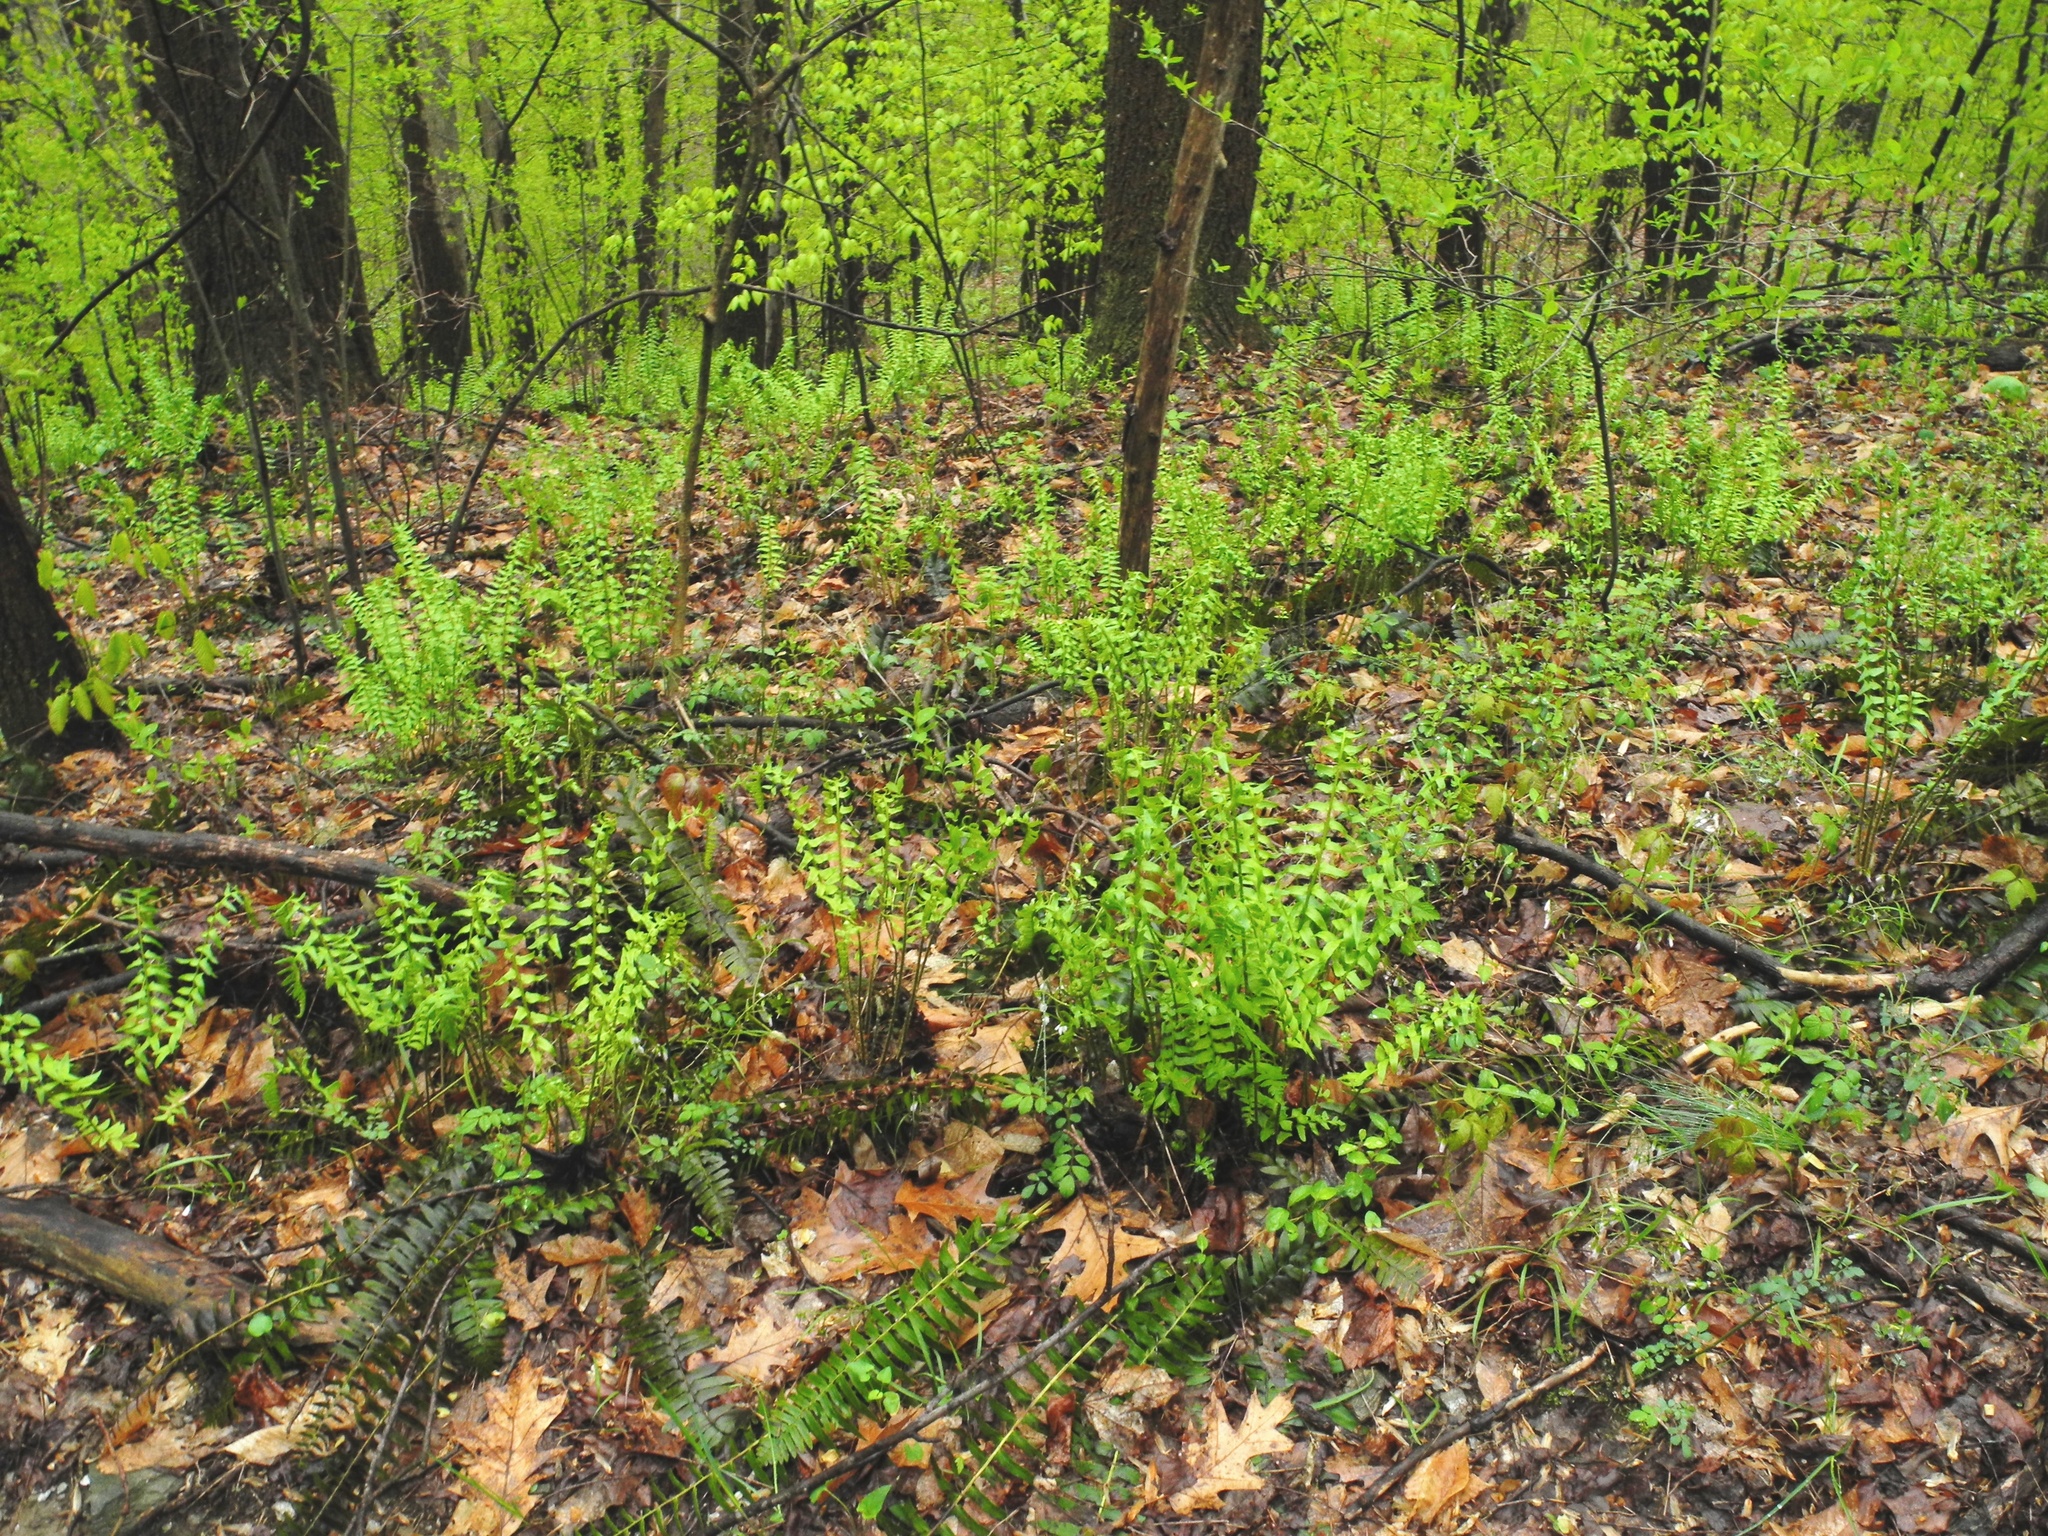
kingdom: Plantae
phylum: Tracheophyta
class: Polypodiopsida
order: Polypodiales
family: Dryopteridaceae
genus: Polystichum
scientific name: Polystichum acrostichoides
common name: Christmas fern
